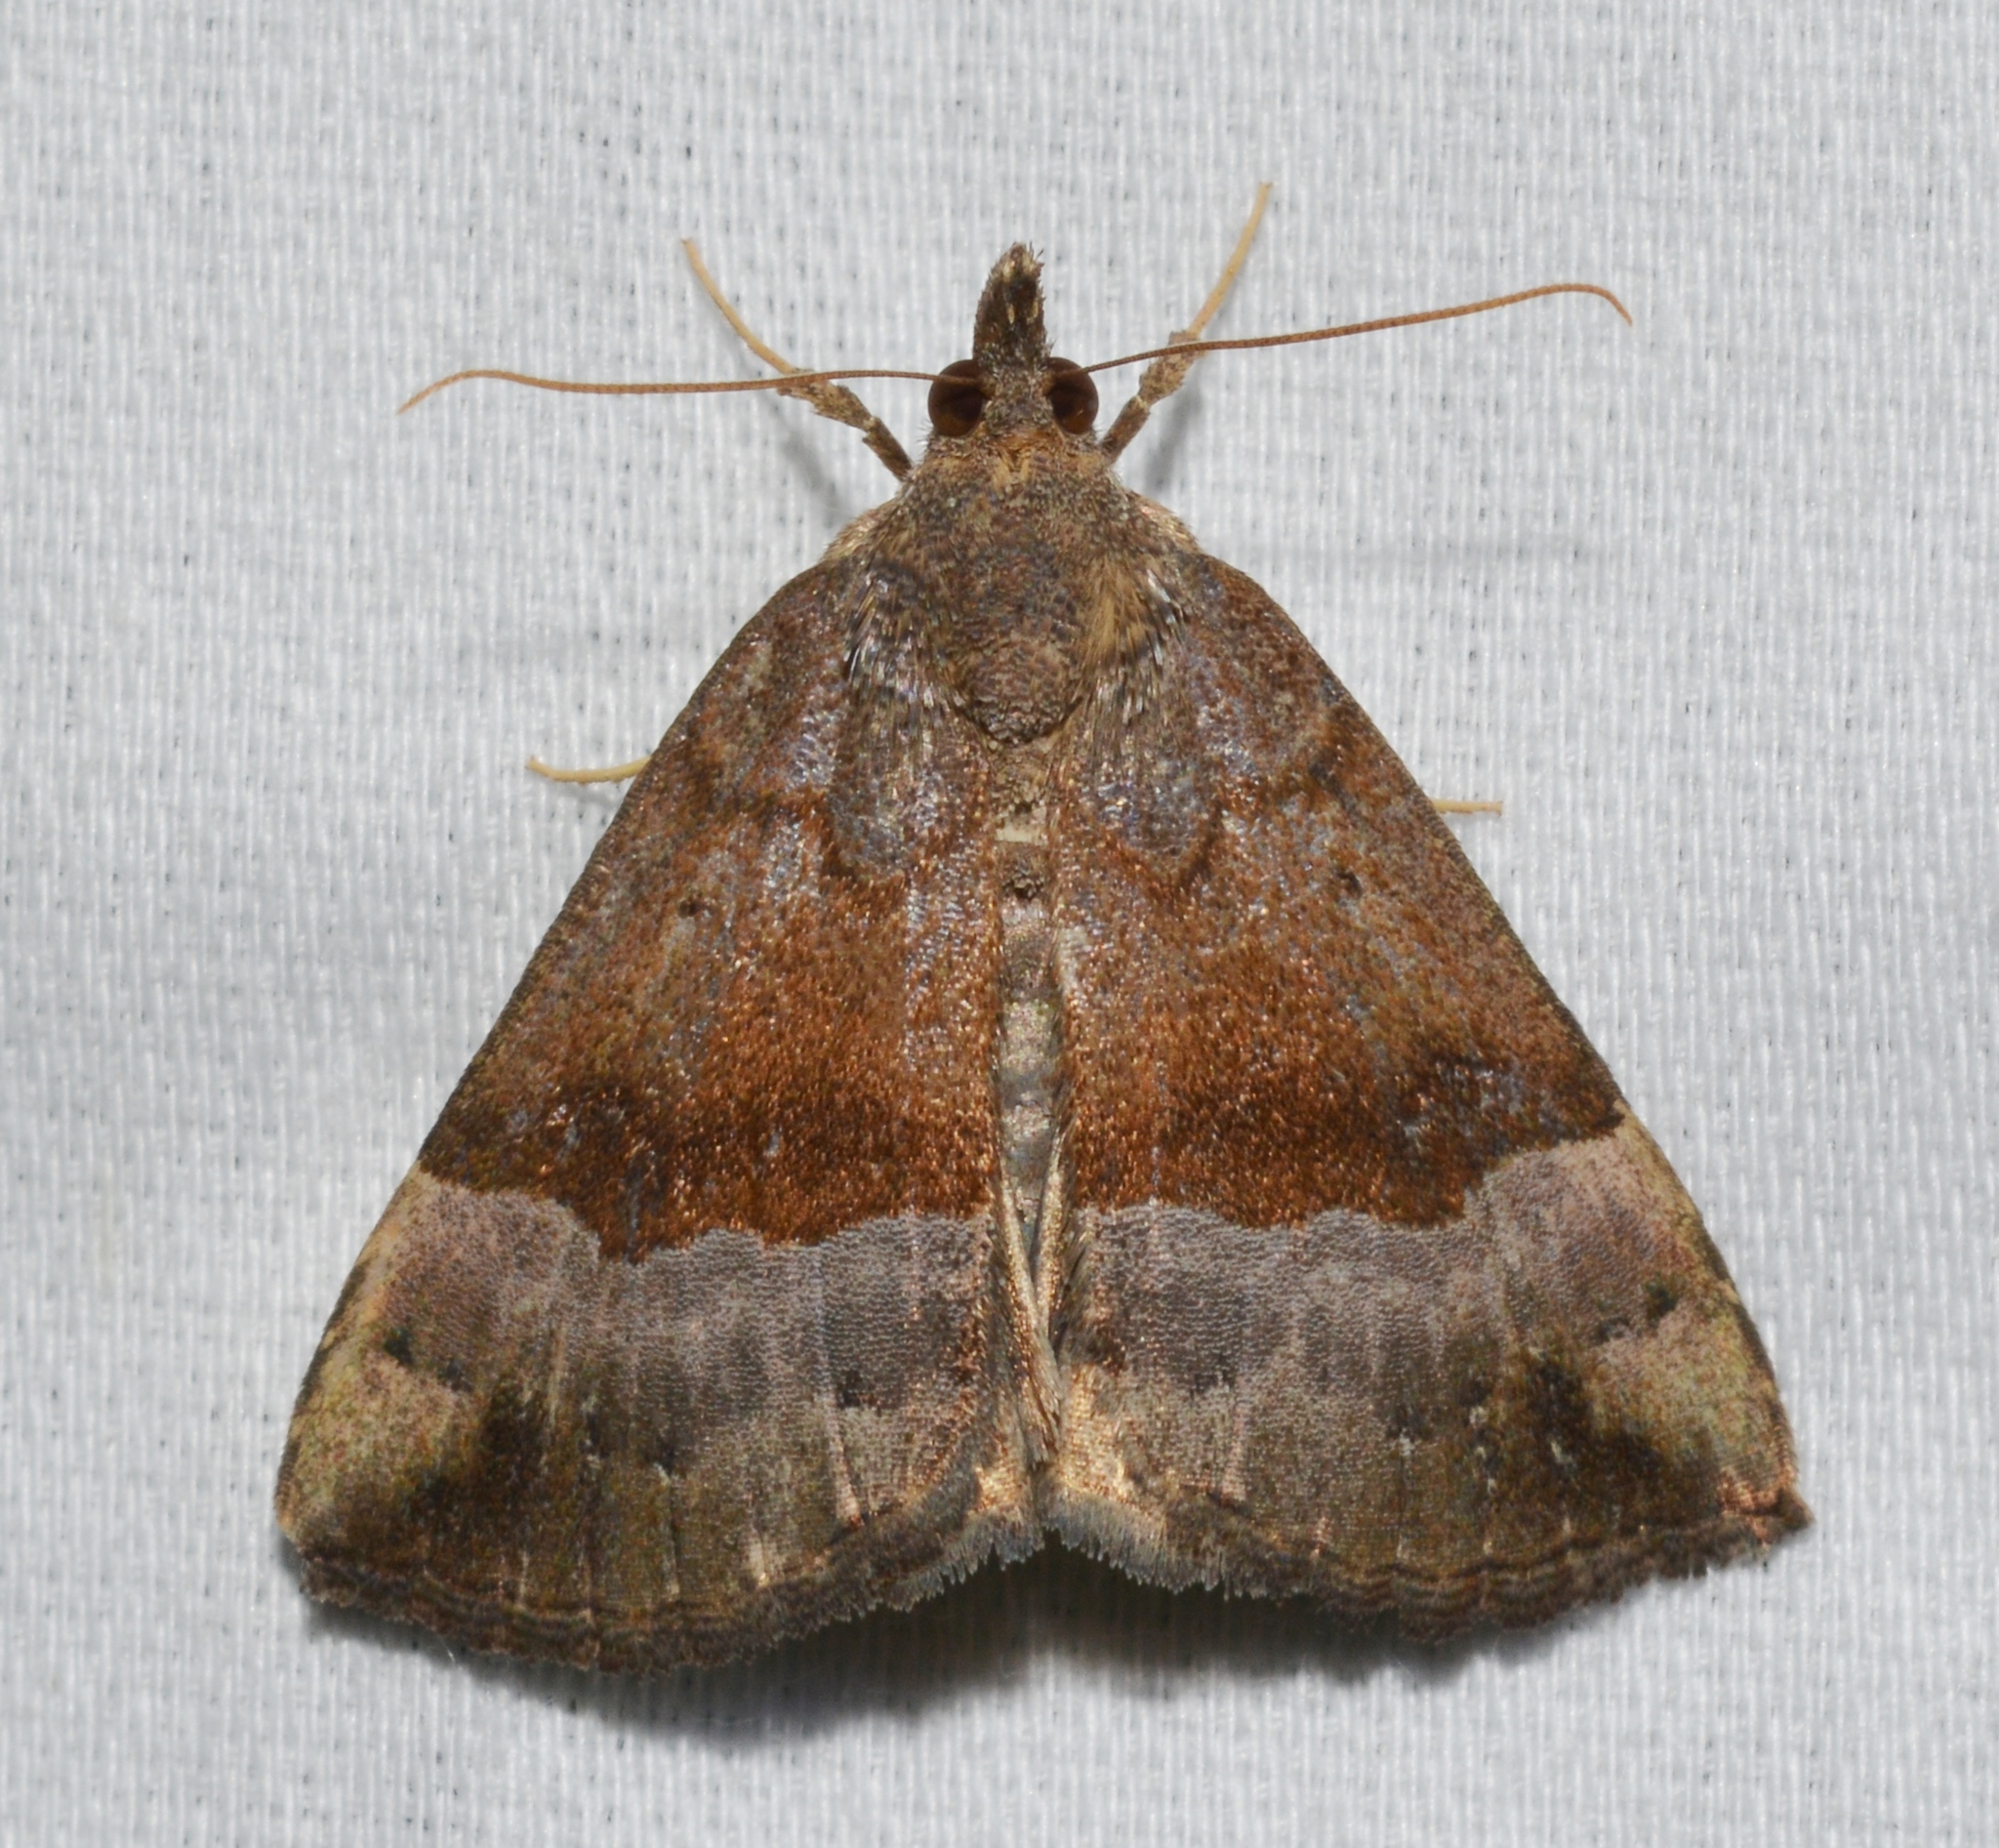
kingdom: Animalia
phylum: Arthropoda
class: Insecta
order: Lepidoptera
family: Erebidae
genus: Hypena
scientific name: Hypena madefactalis
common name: Gray-edged snout
